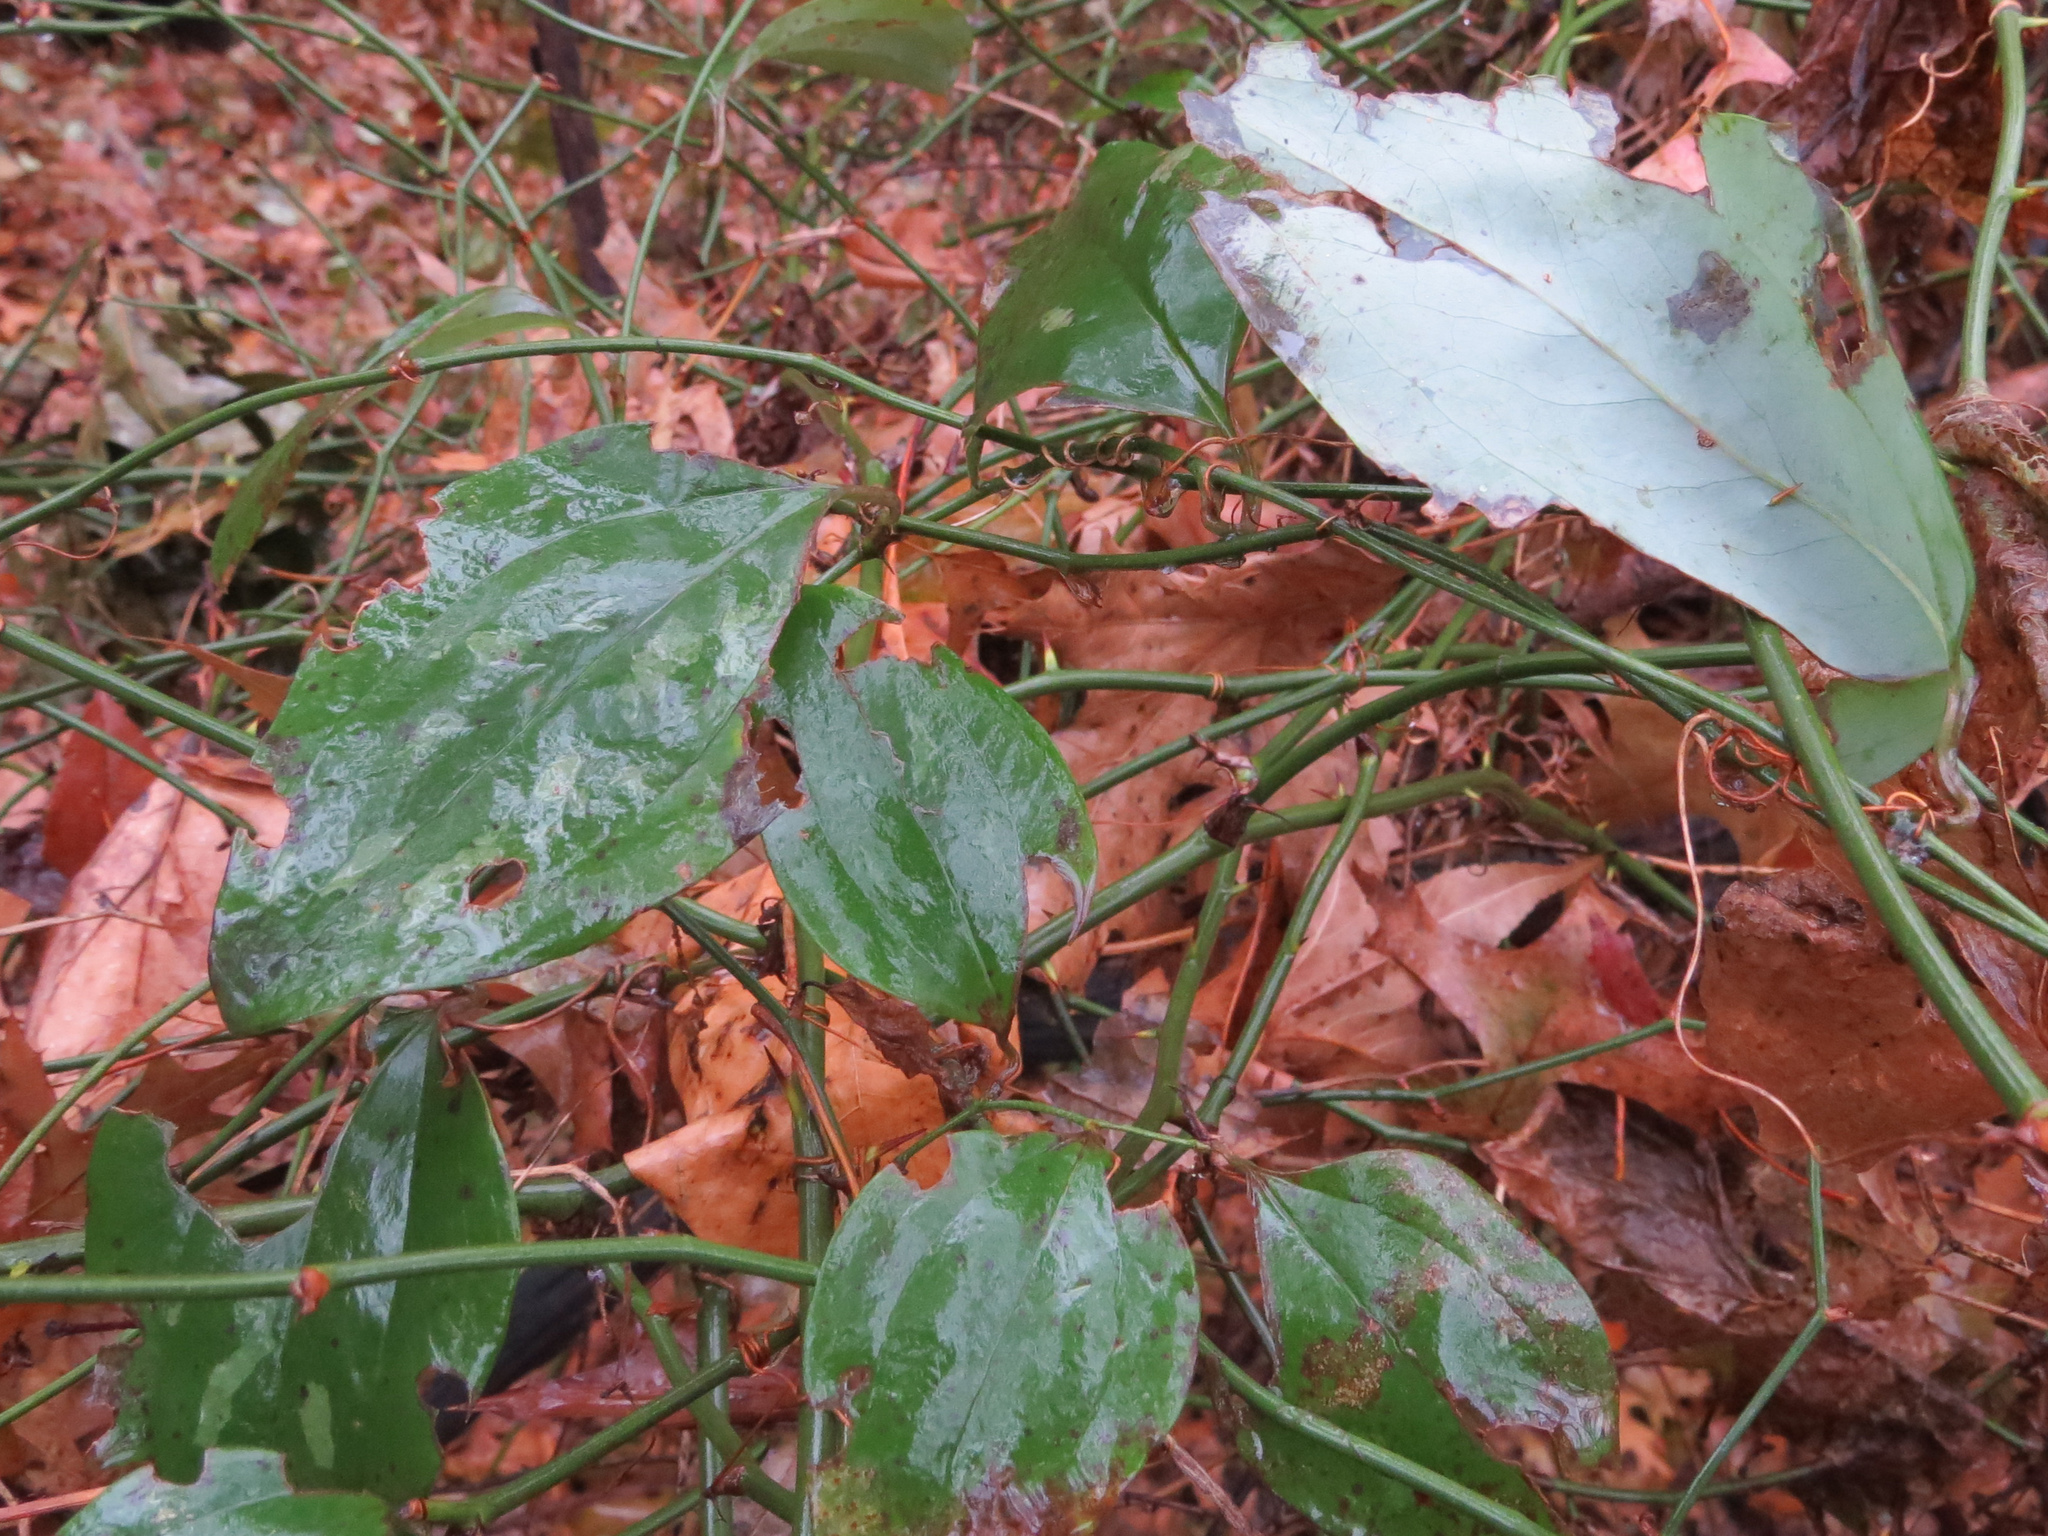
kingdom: Plantae
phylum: Tracheophyta
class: Liliopsida
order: Liliales
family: Smilacaceae
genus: Smilax
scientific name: Smilax glauca
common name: Cat greenbrier
